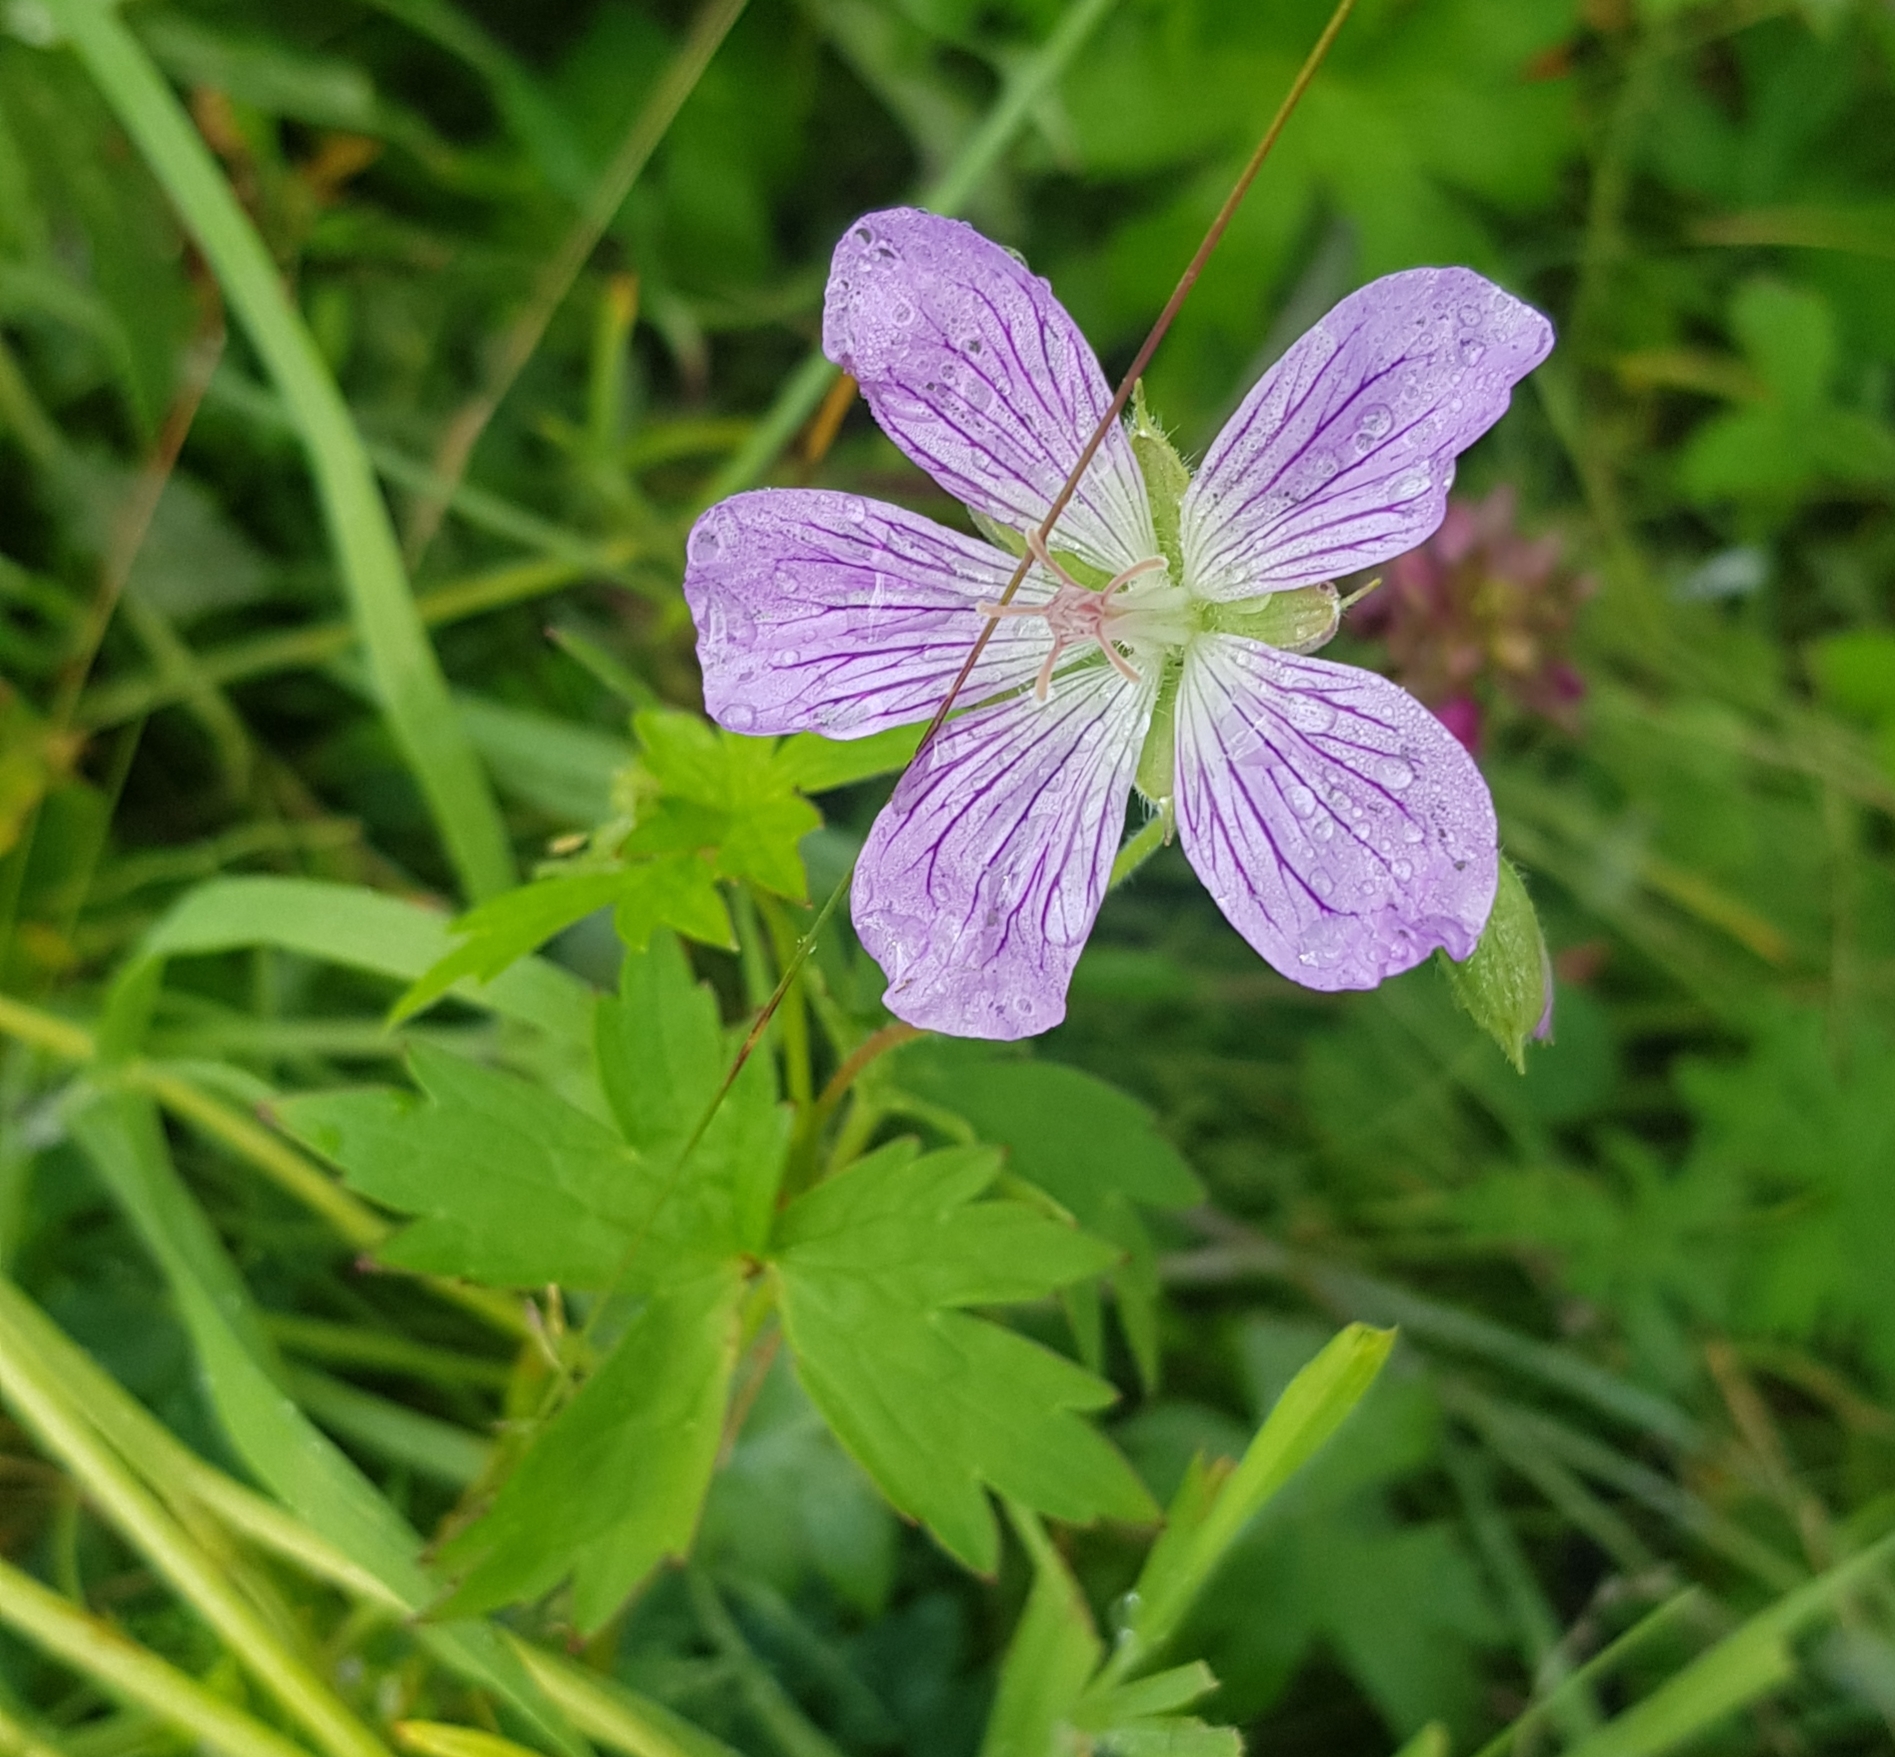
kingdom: Plantae
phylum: Tracheophyta
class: Magnoliopsida
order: Geraniales
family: Geraniaceae
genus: Geranium
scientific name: Geranium wlassovianum
